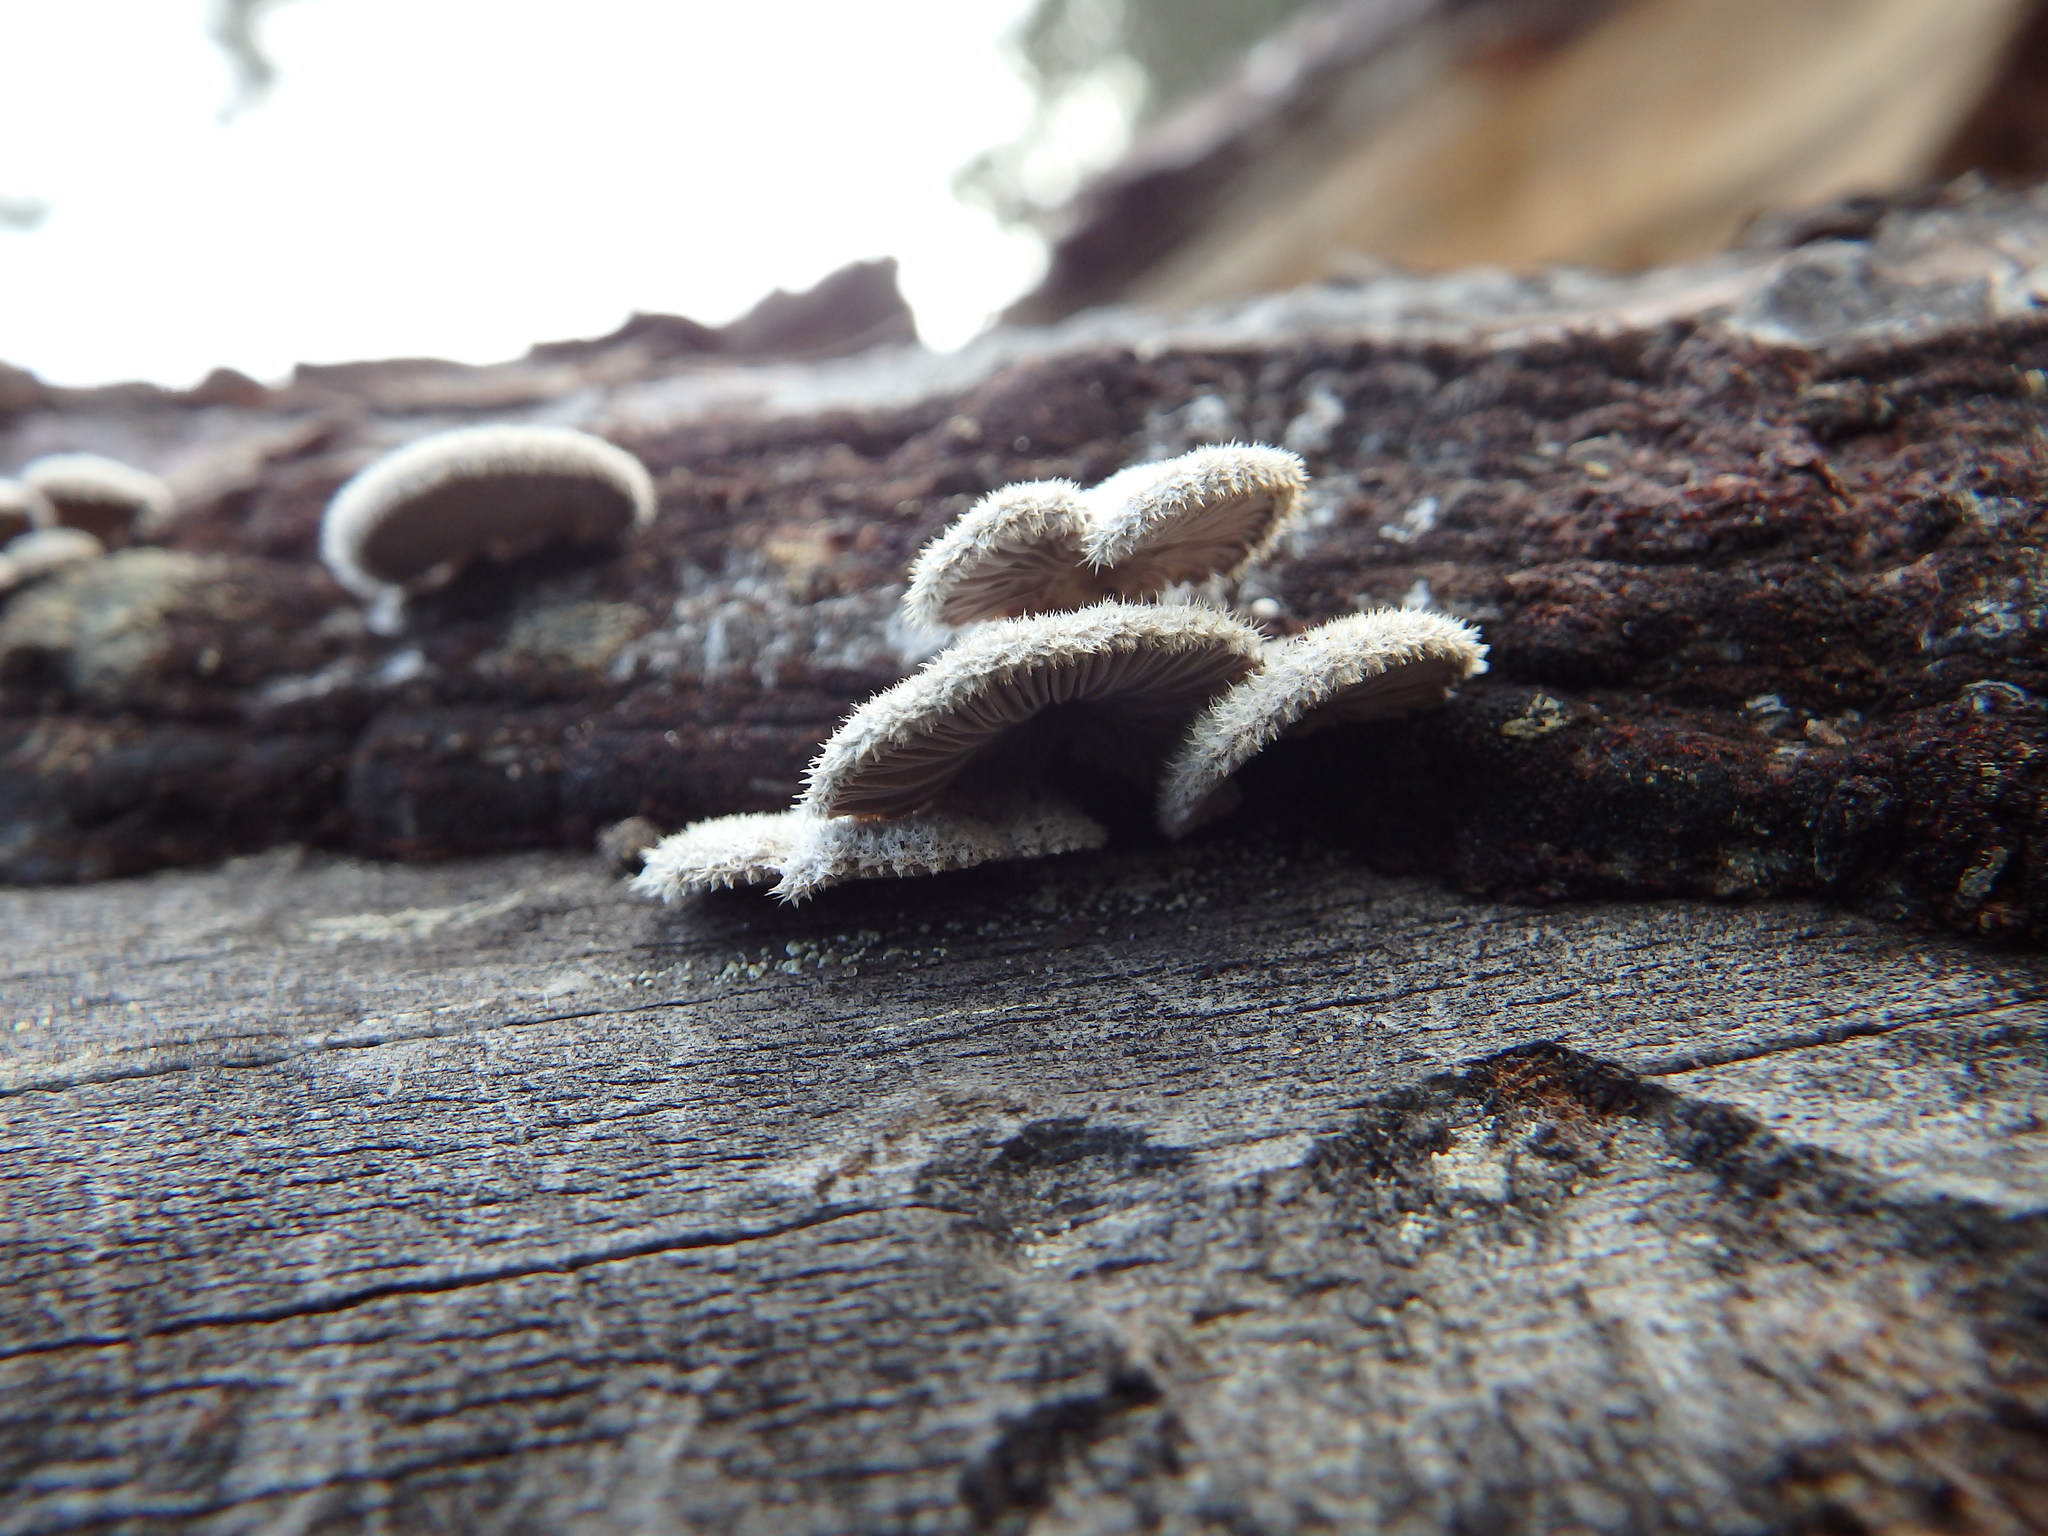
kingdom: Fungi
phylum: Basidiomycota
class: Agaricomycetes
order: Agaricales
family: Schizophyllaceae
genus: Schizophyllum
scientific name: Schizophyllum commune
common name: Common porecrust
